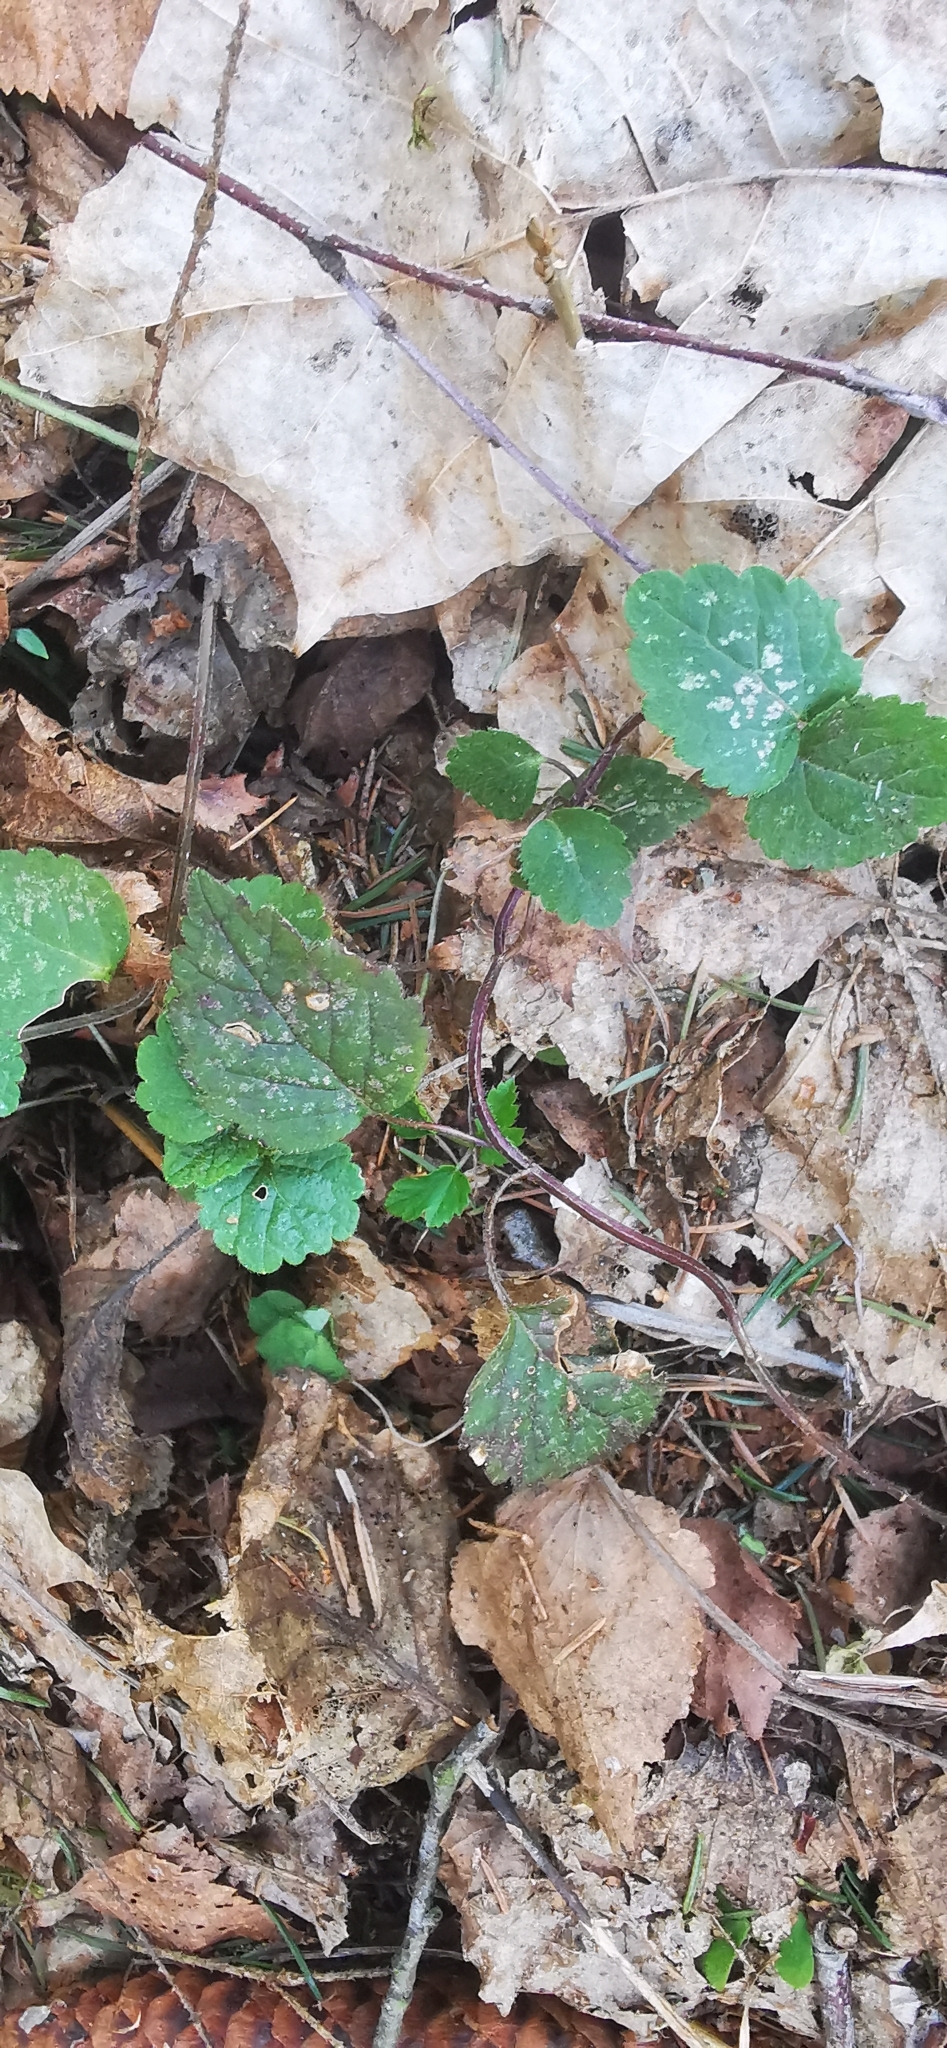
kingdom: Plantae
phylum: Tracheophyta
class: Magnoliopsida
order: Lamiales
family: Lamiaceae
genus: Lamium
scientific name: Lamium galeobdolon
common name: Yellow archangel
